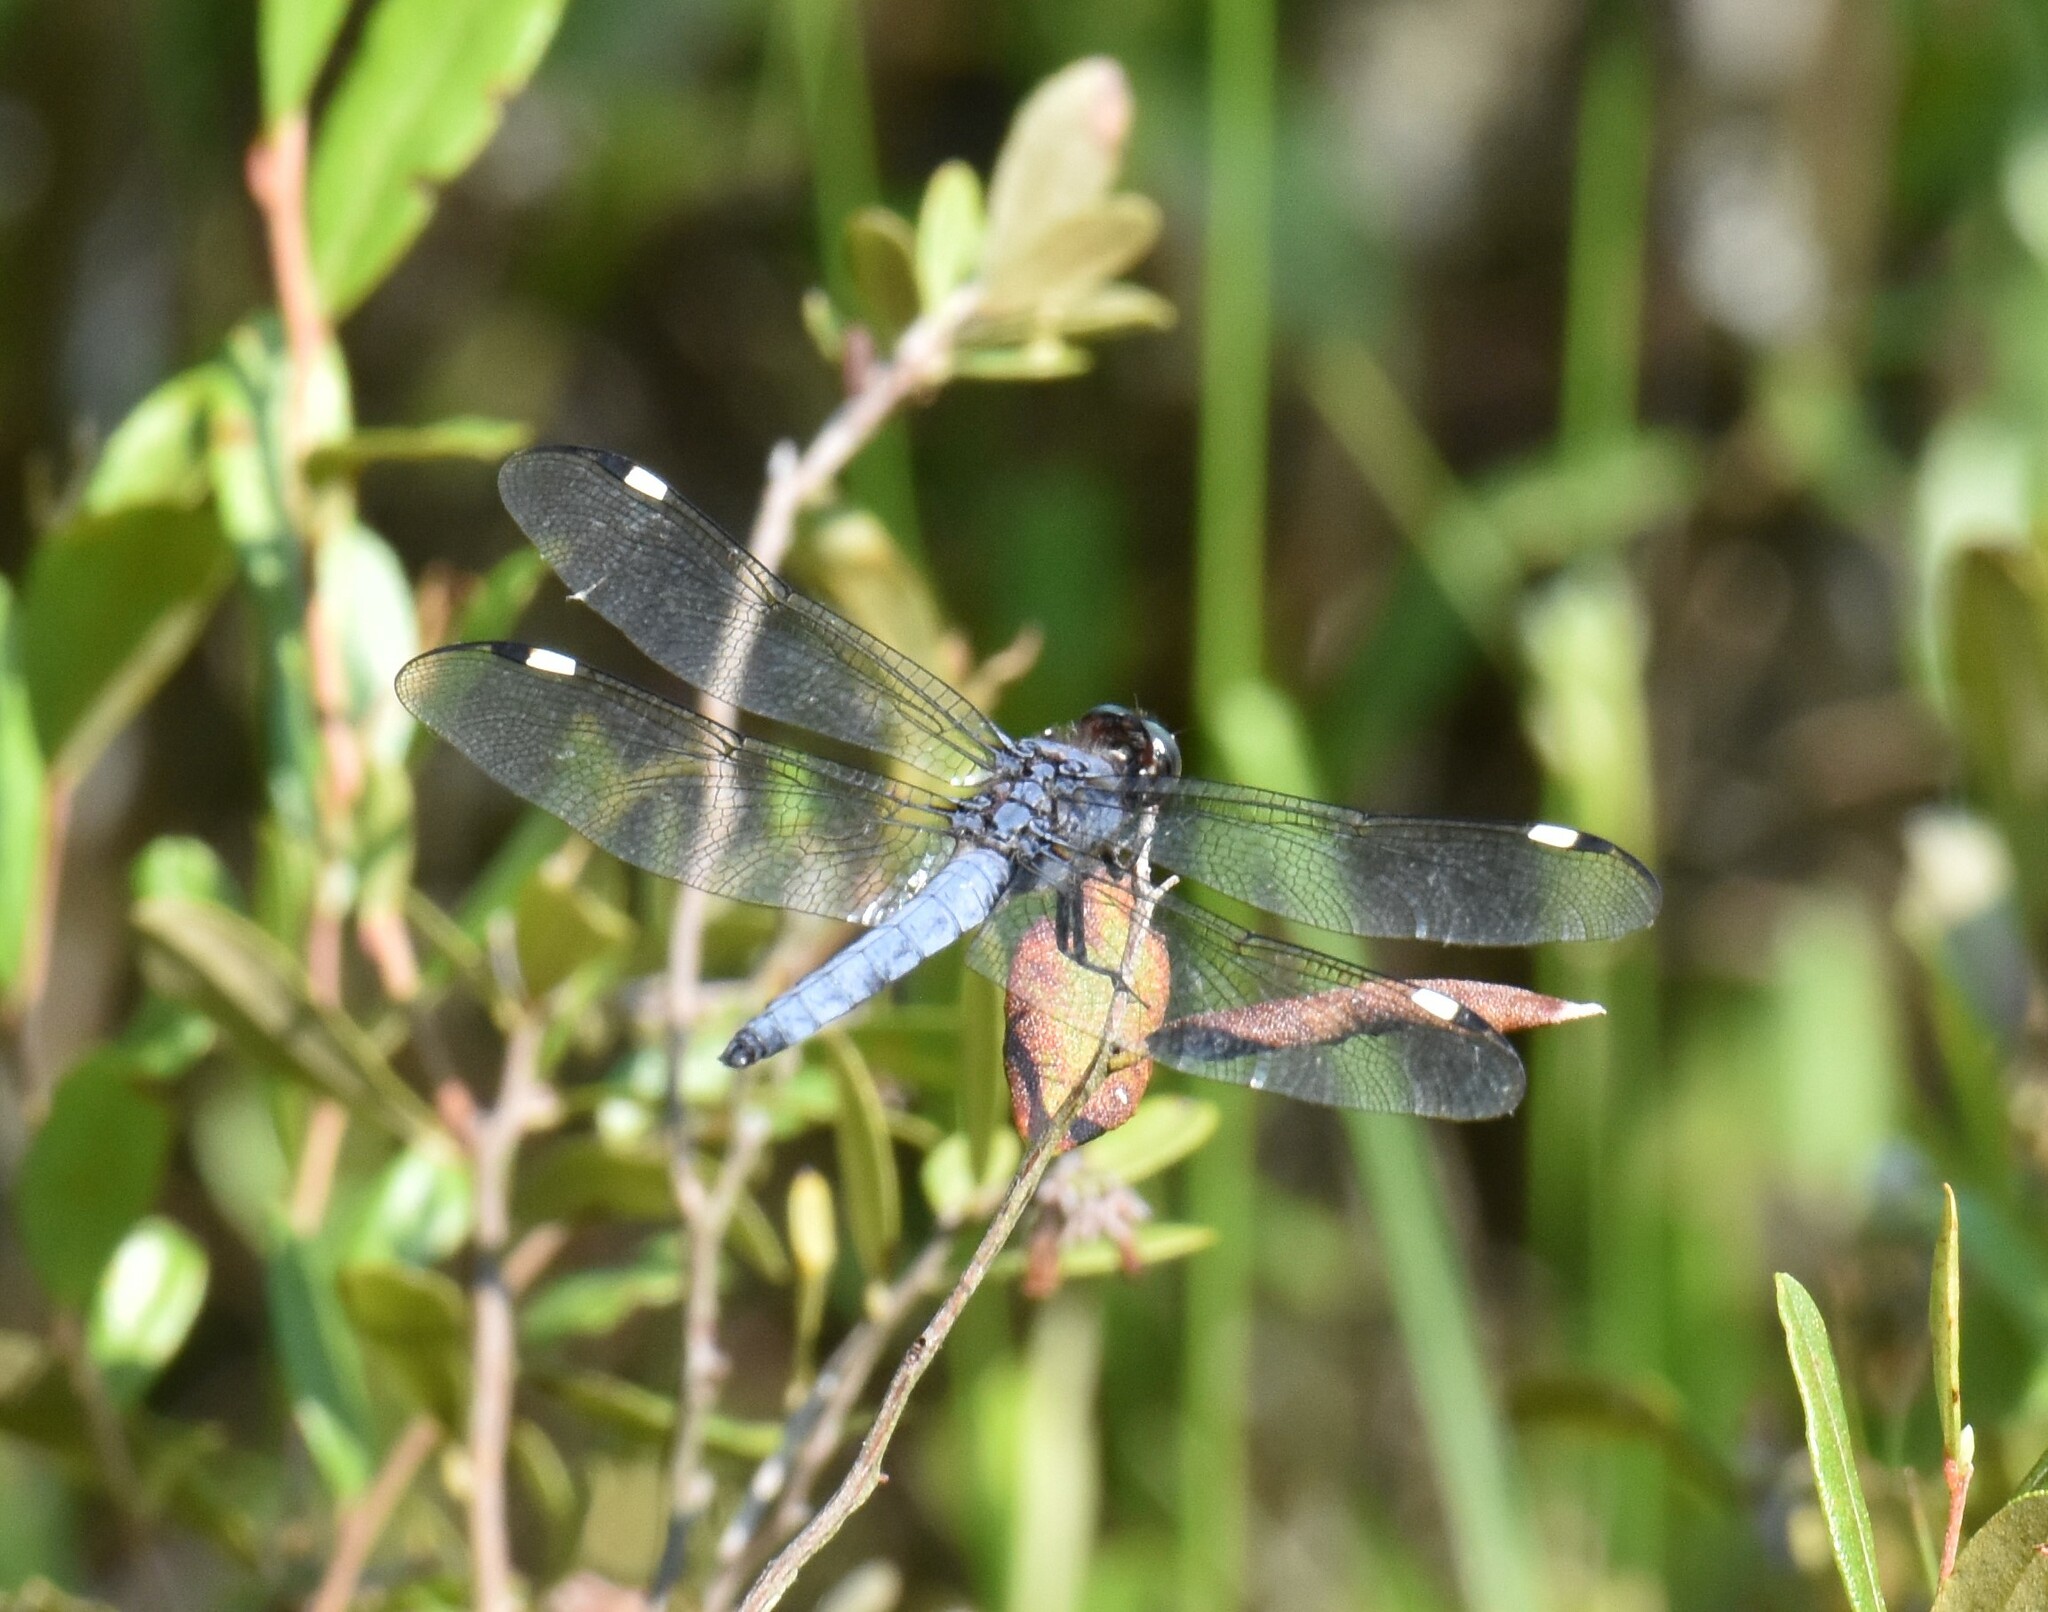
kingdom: Animalia
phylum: Arthropoda
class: Insecta
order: Odonata
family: Libellulidae
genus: Libellula
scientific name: Libellula cyanea
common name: Spangled skimmer
